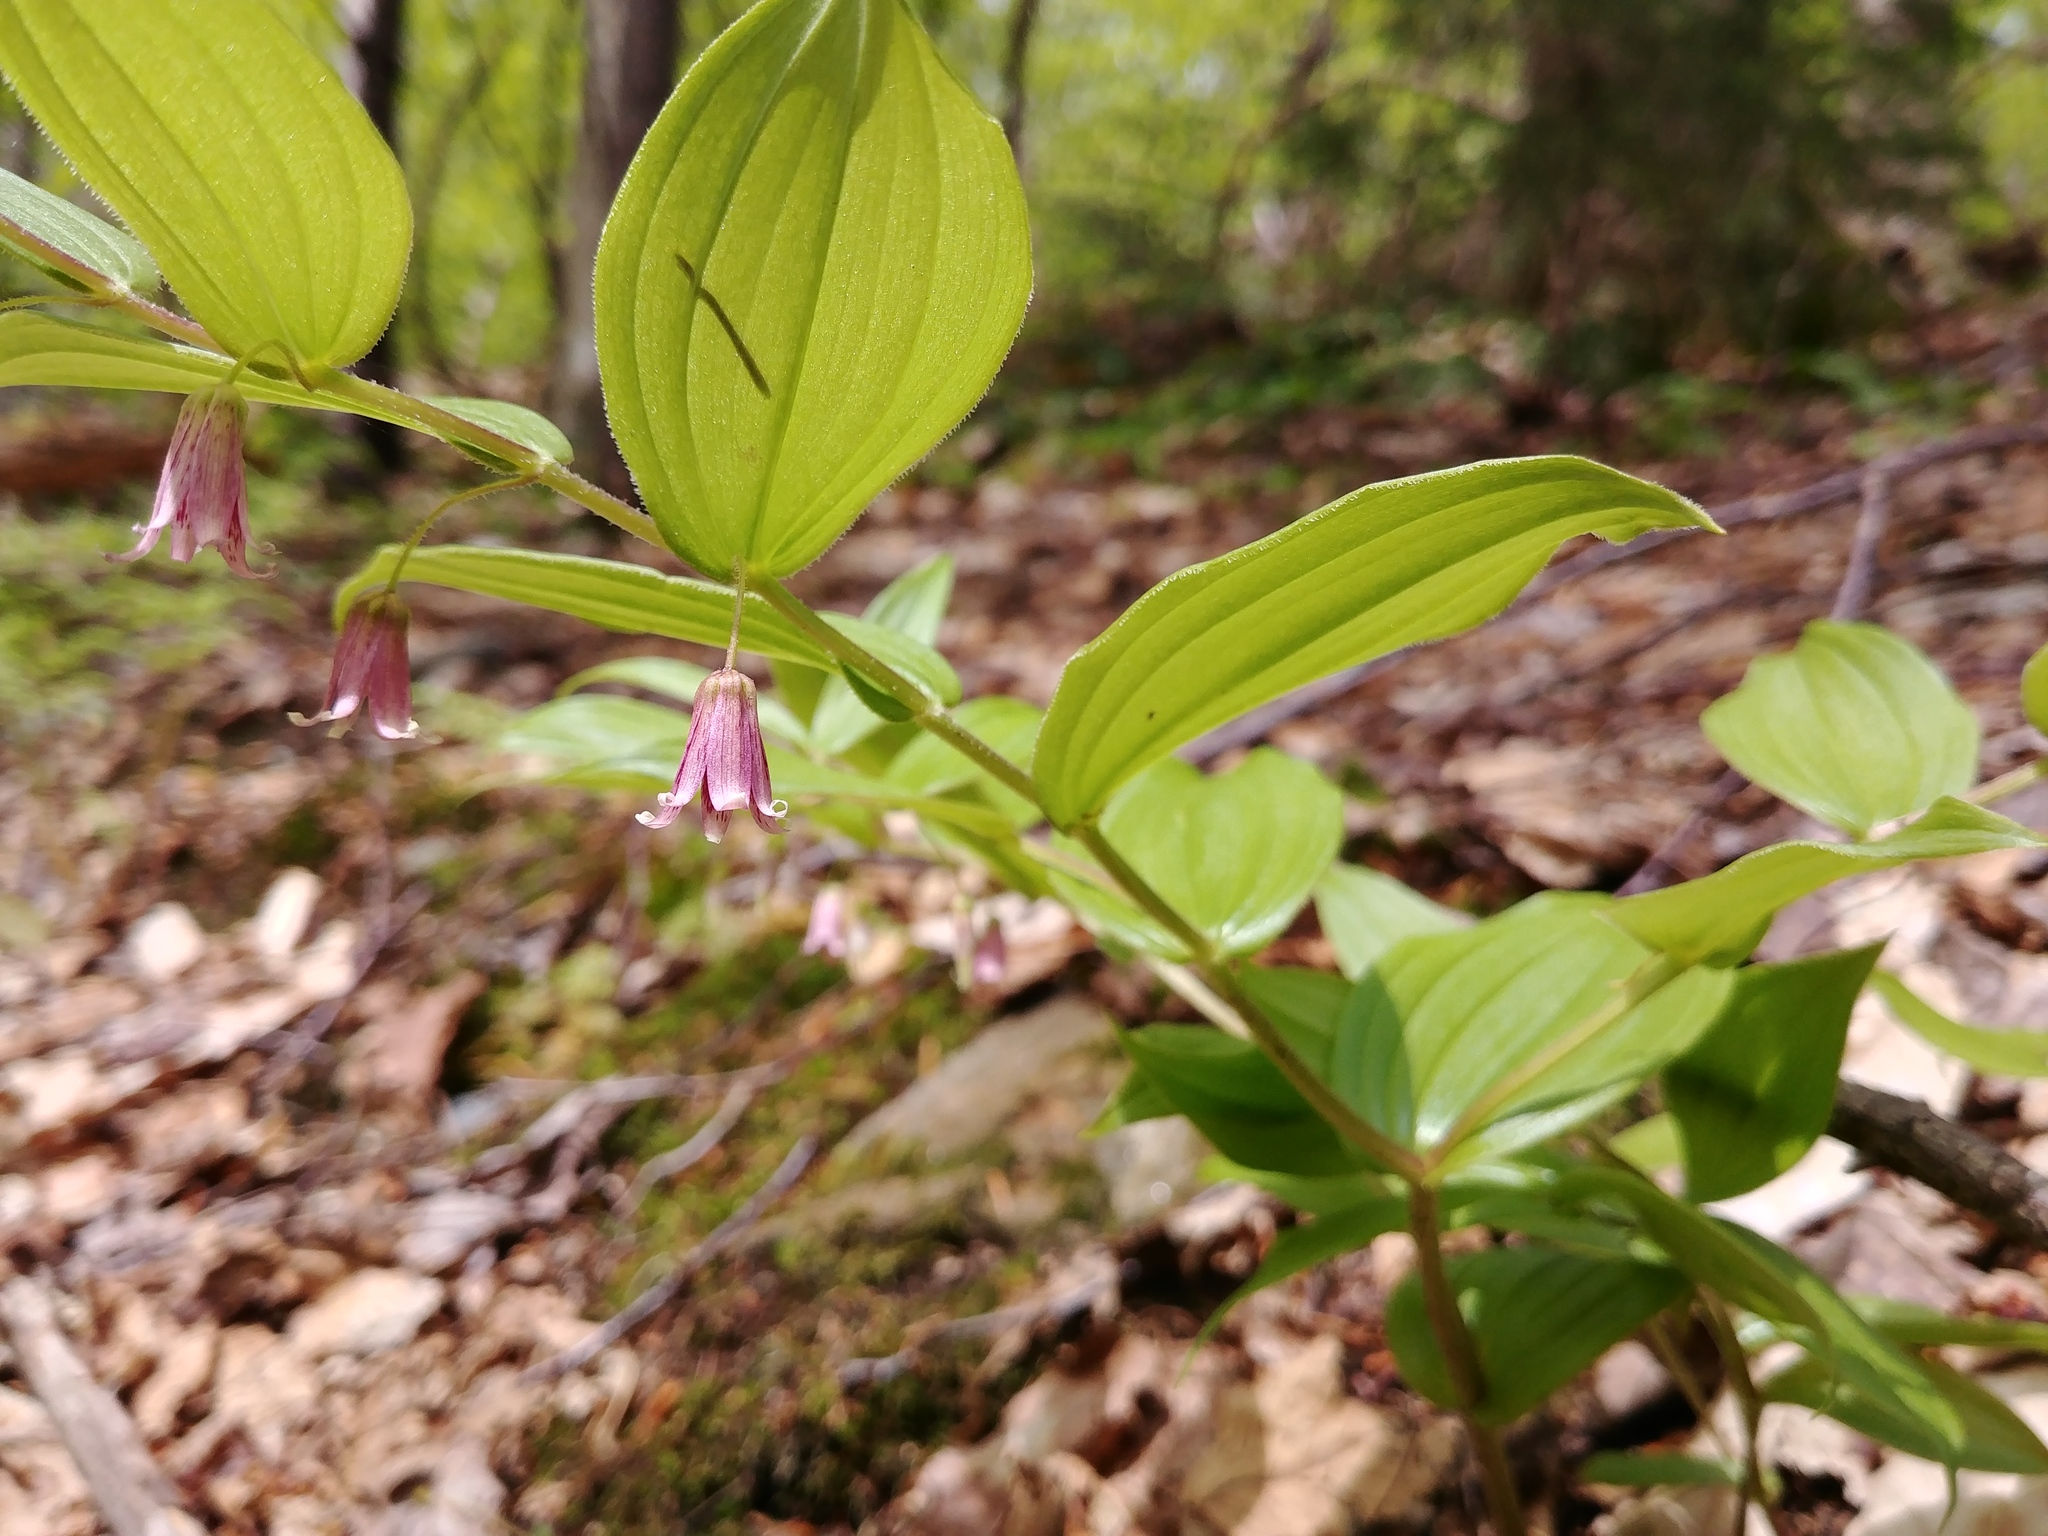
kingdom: Plantae
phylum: Tracheophyta
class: Liliopsida
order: Liliales
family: Liliaceae
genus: Streptopus
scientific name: Streptopus lanceolatus
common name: Rose mandarin
